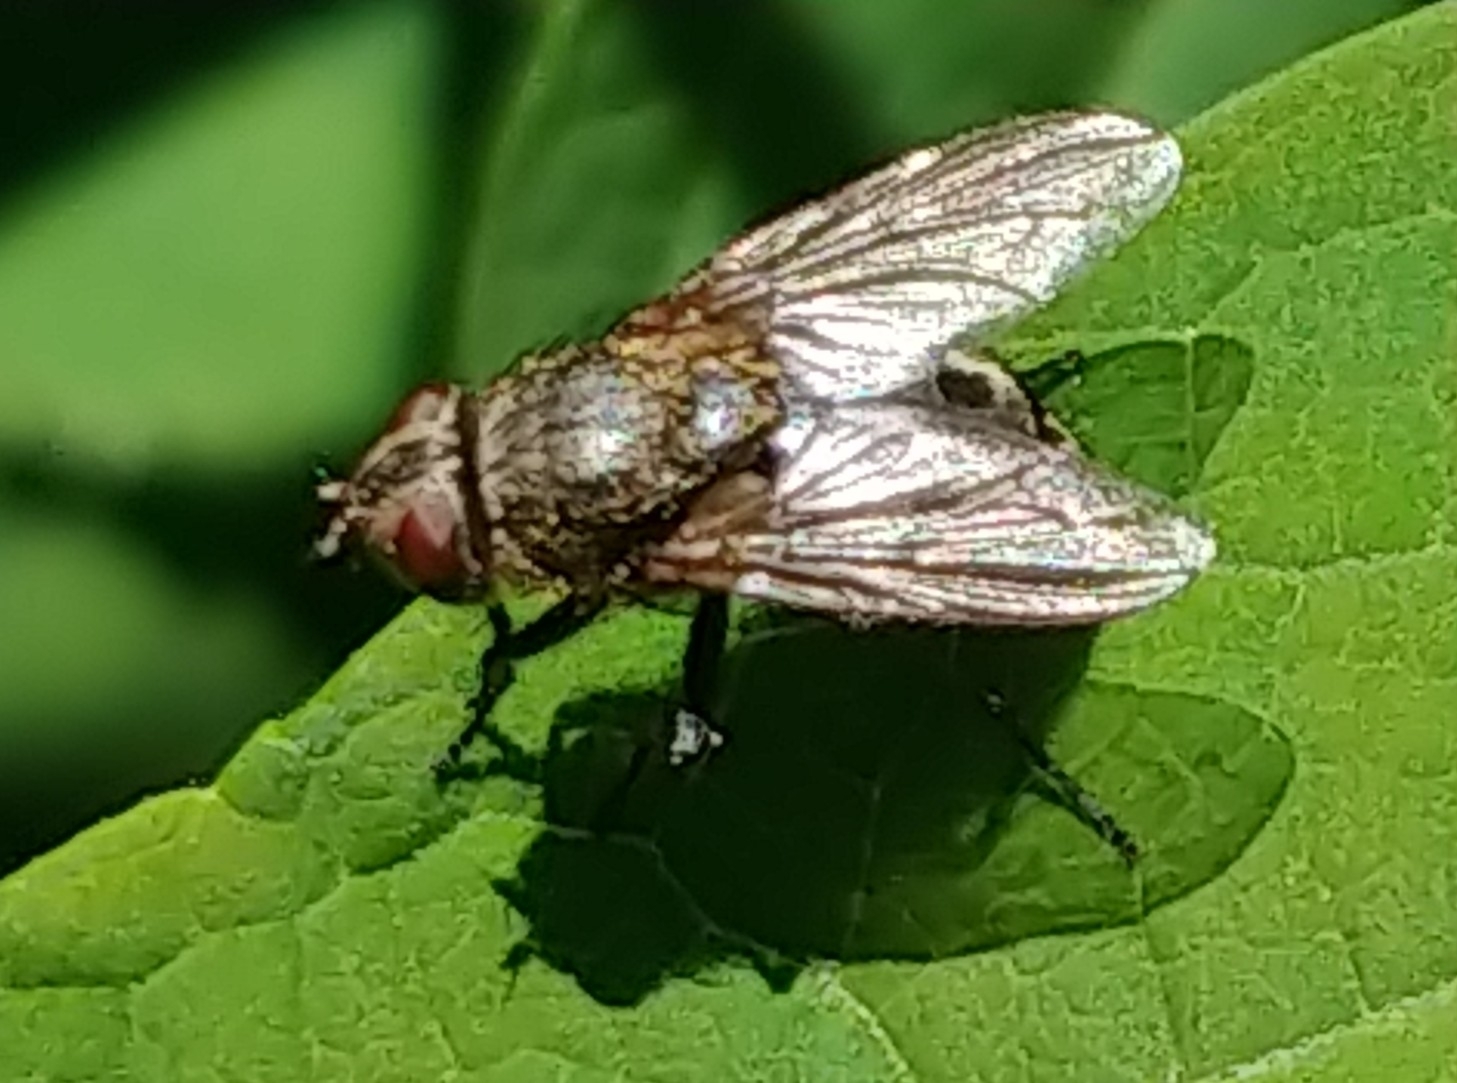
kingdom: Animalia
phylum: Arthropoda
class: Insecta
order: Diptera
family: Polleniidae
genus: Pollenia
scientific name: Pollenia
